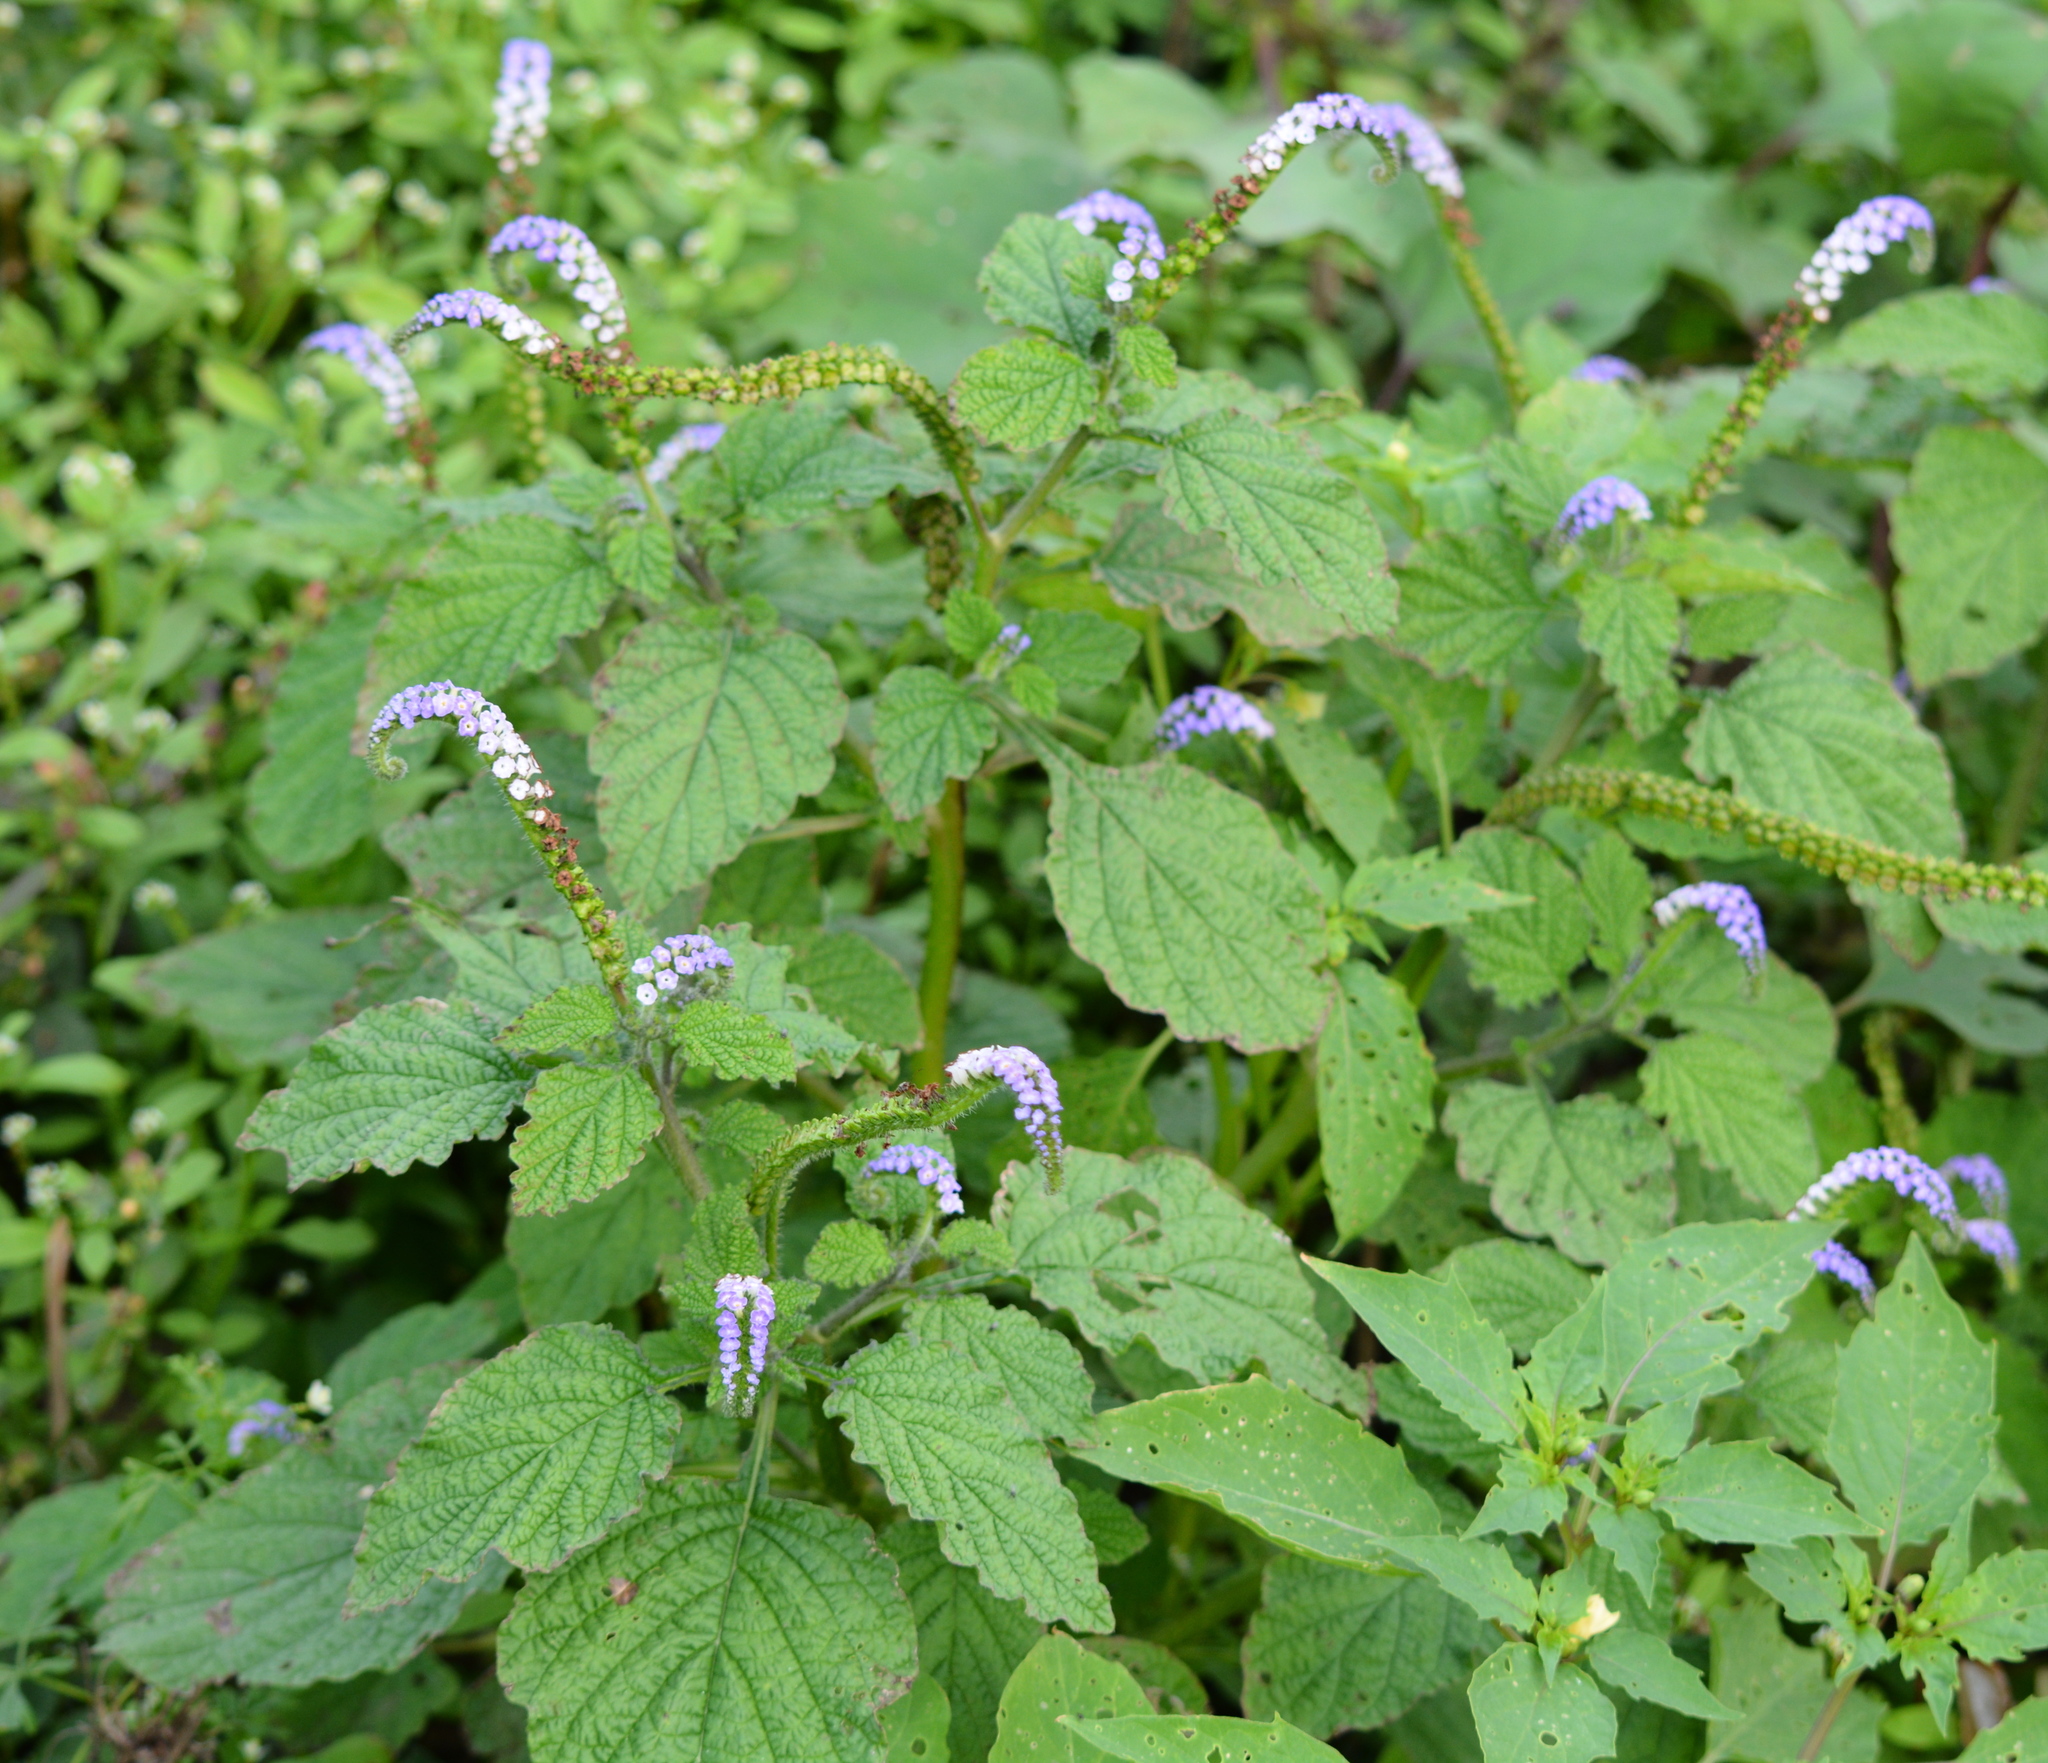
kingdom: Plantae
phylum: Tracheophyta
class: Magnoliopsida
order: Boraginales
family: Heliotropiaceae
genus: Heliotropium
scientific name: Heliotropium indicum
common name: Indian heliotrope
